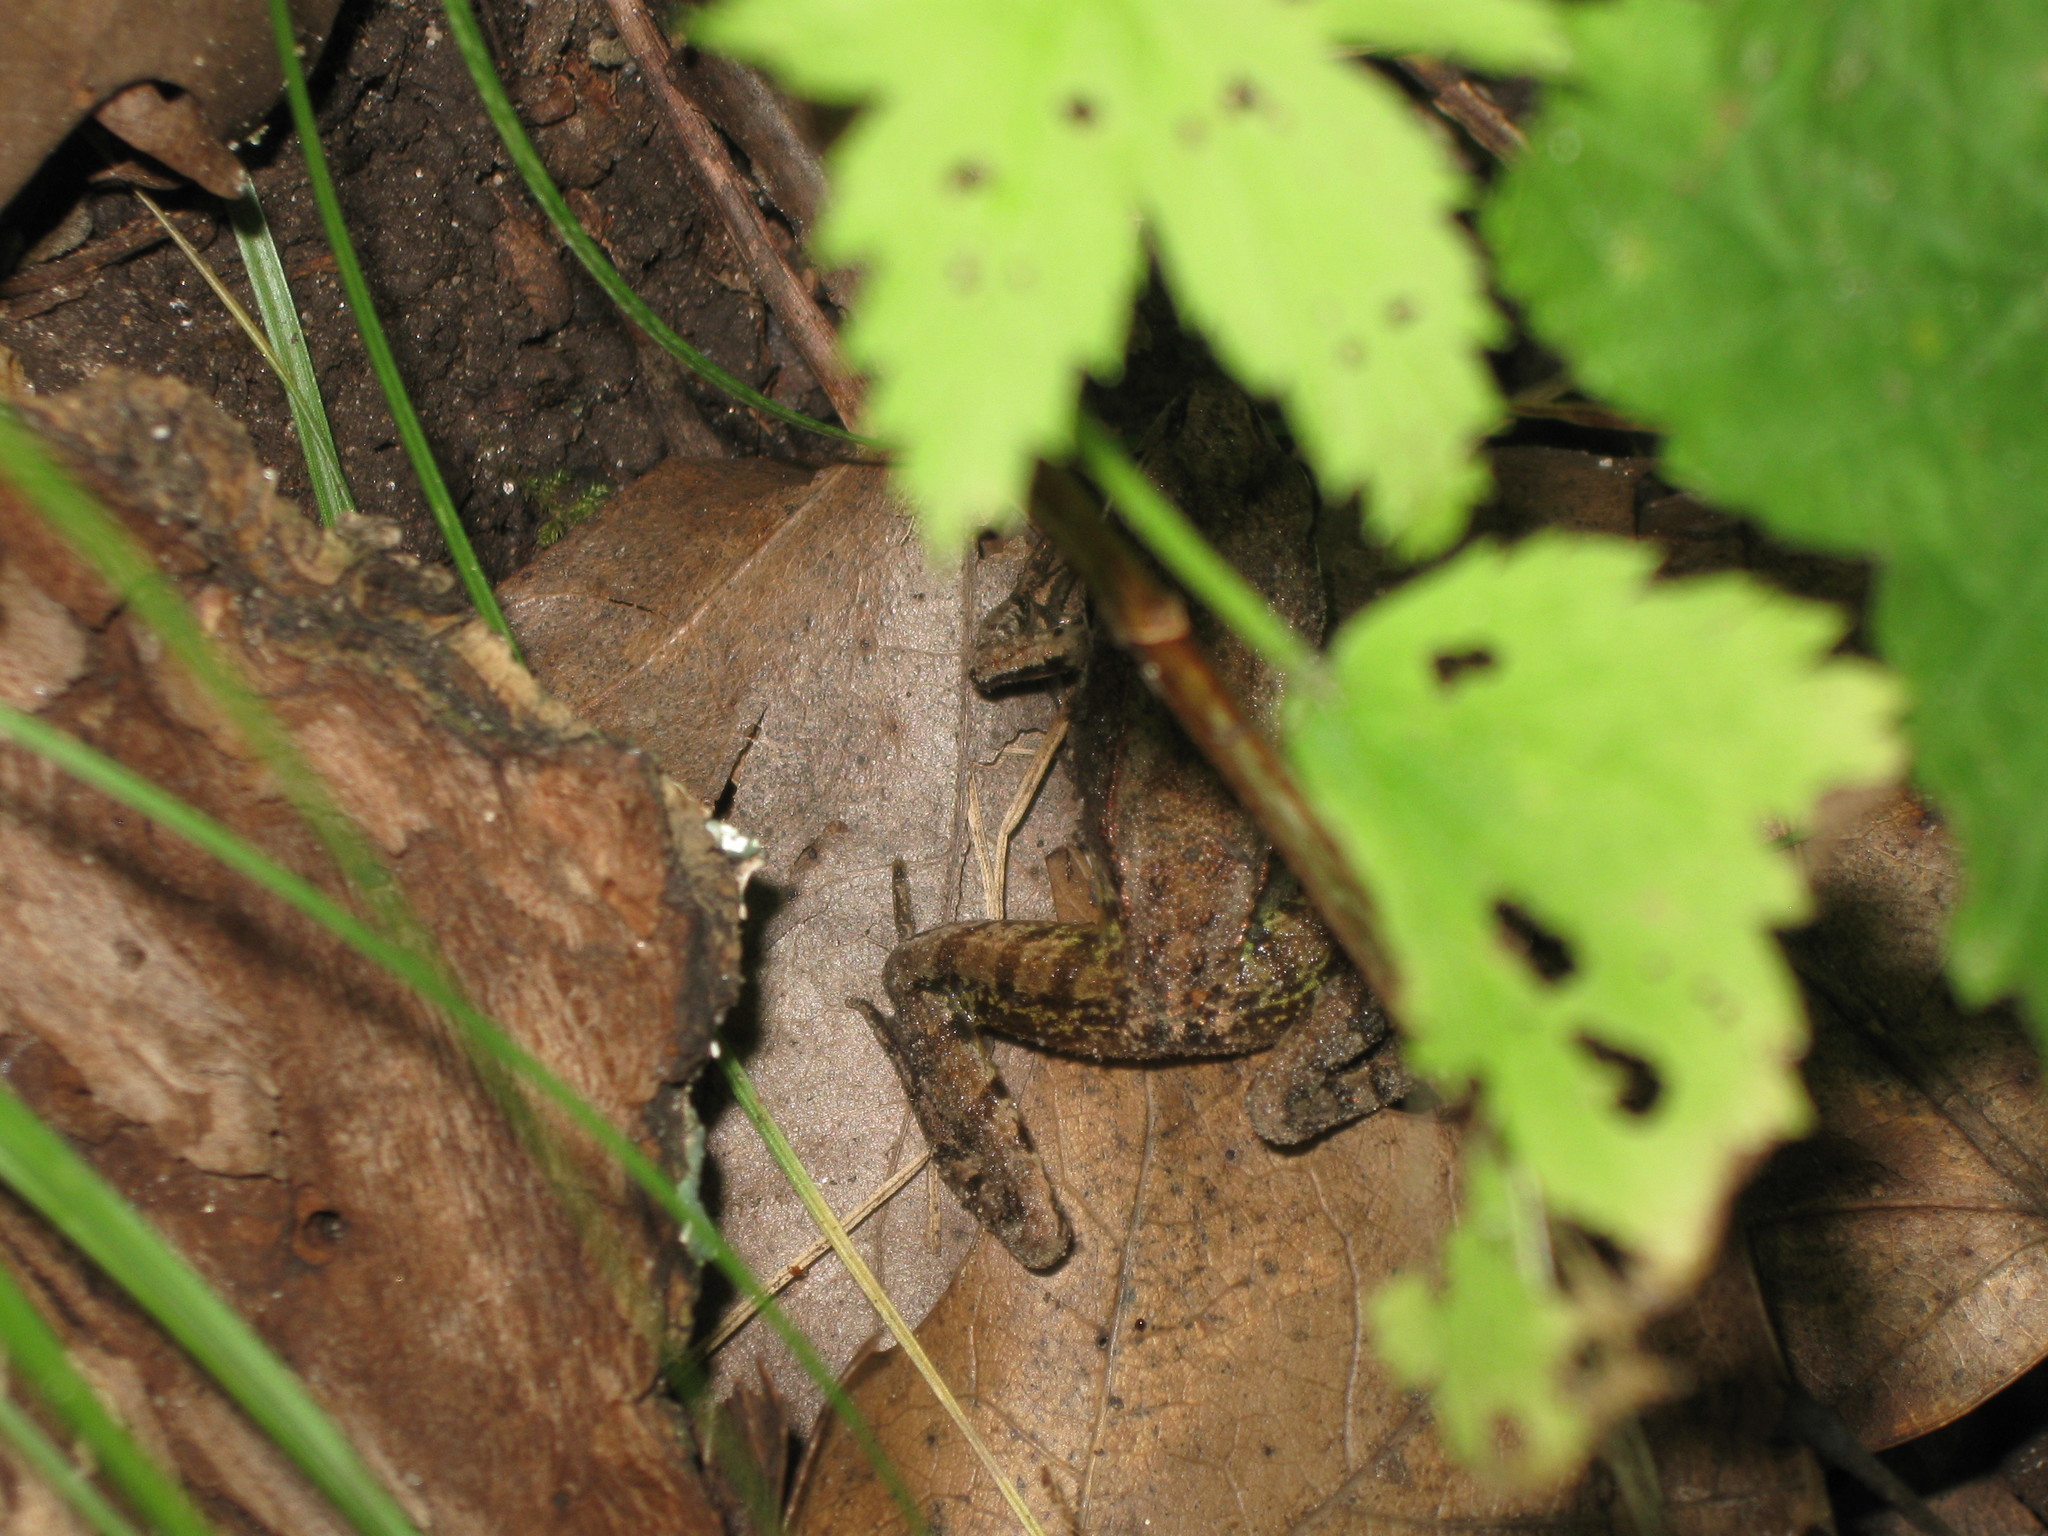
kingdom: Animalia
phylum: Chordata
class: Amphibia
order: Anura
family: Ranidae
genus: Lithobates
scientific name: Lithobates sylvaticus
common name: Wood frog
